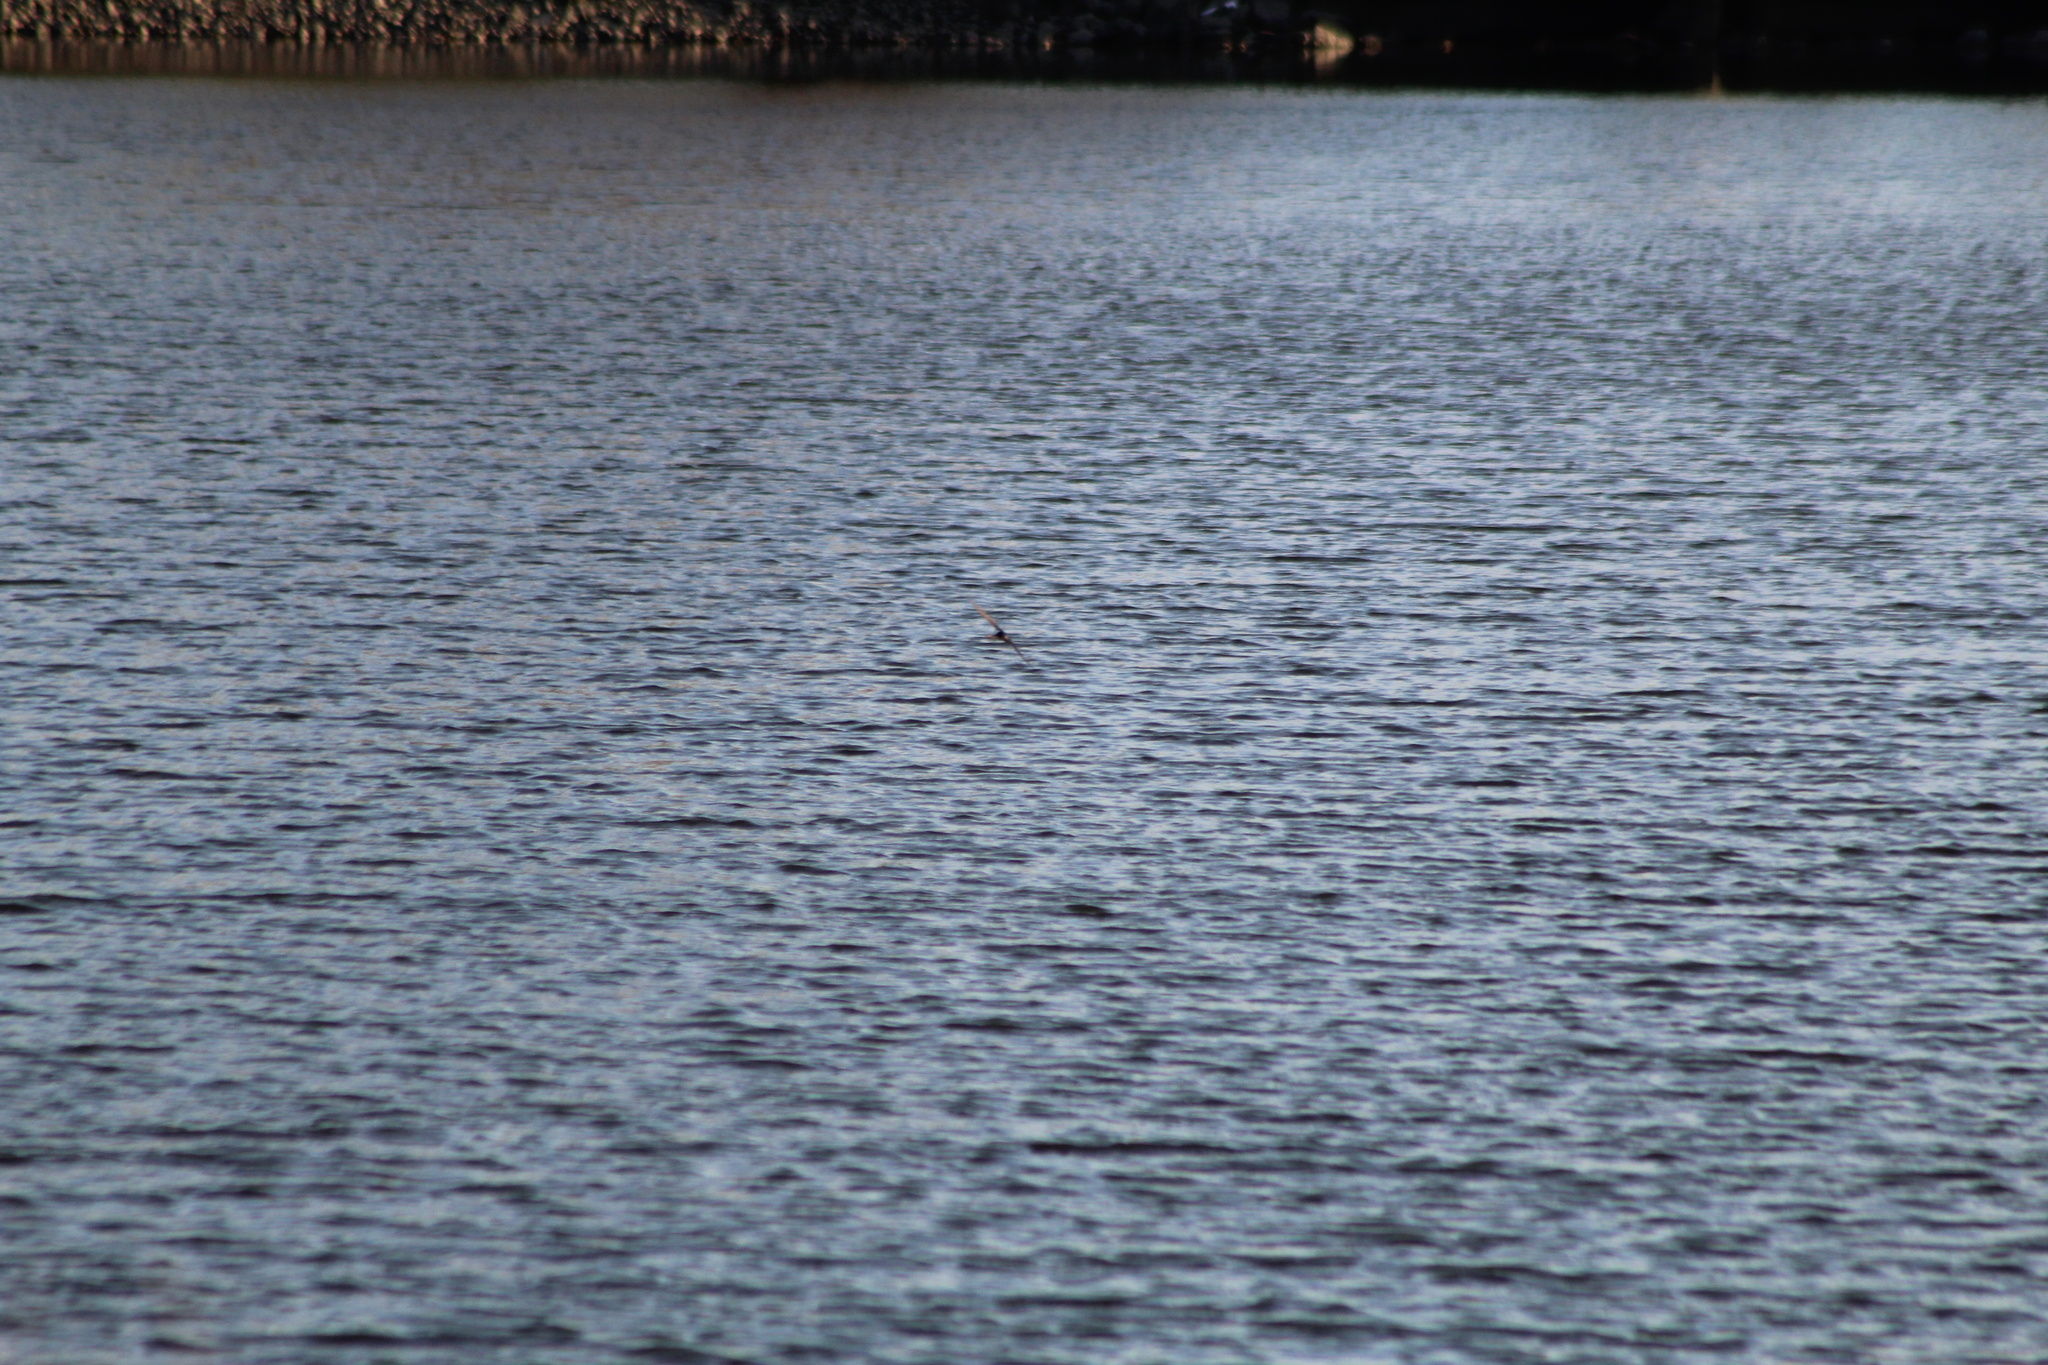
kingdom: Animalia
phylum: Chordata
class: Aves
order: Passeriformes
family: Hirundinidae
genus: Tachycineta
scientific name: Tachycineta bicolor
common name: Tree swallow
